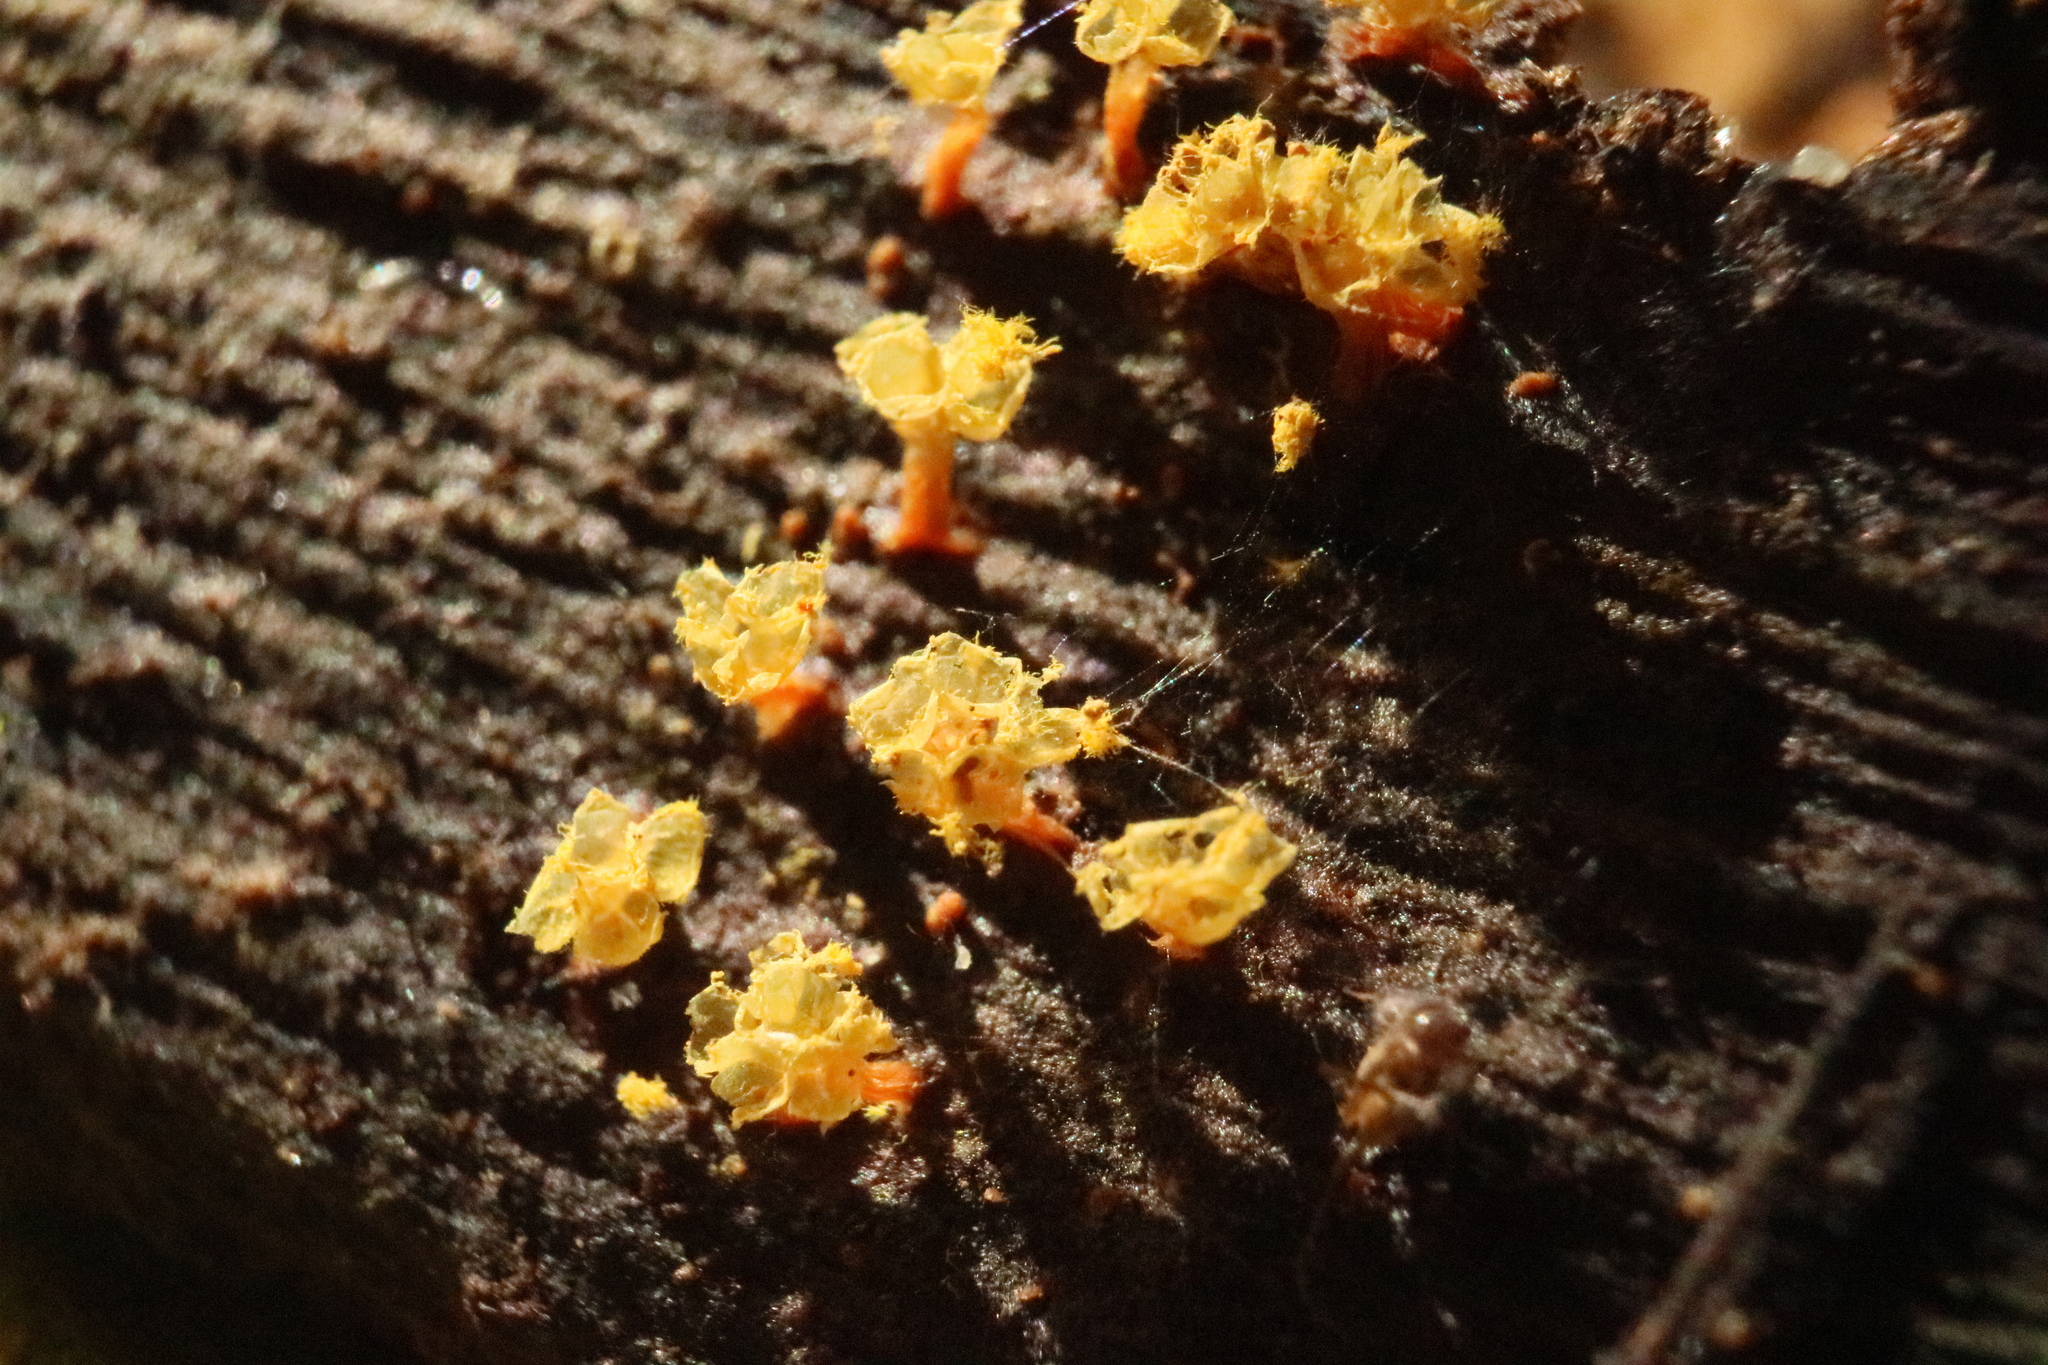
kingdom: Protozoa
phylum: Mycetozoa
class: Myxomycetes
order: Trichiales
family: Trichiaceae
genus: Oligonema
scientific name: Oligonema verrucosum
